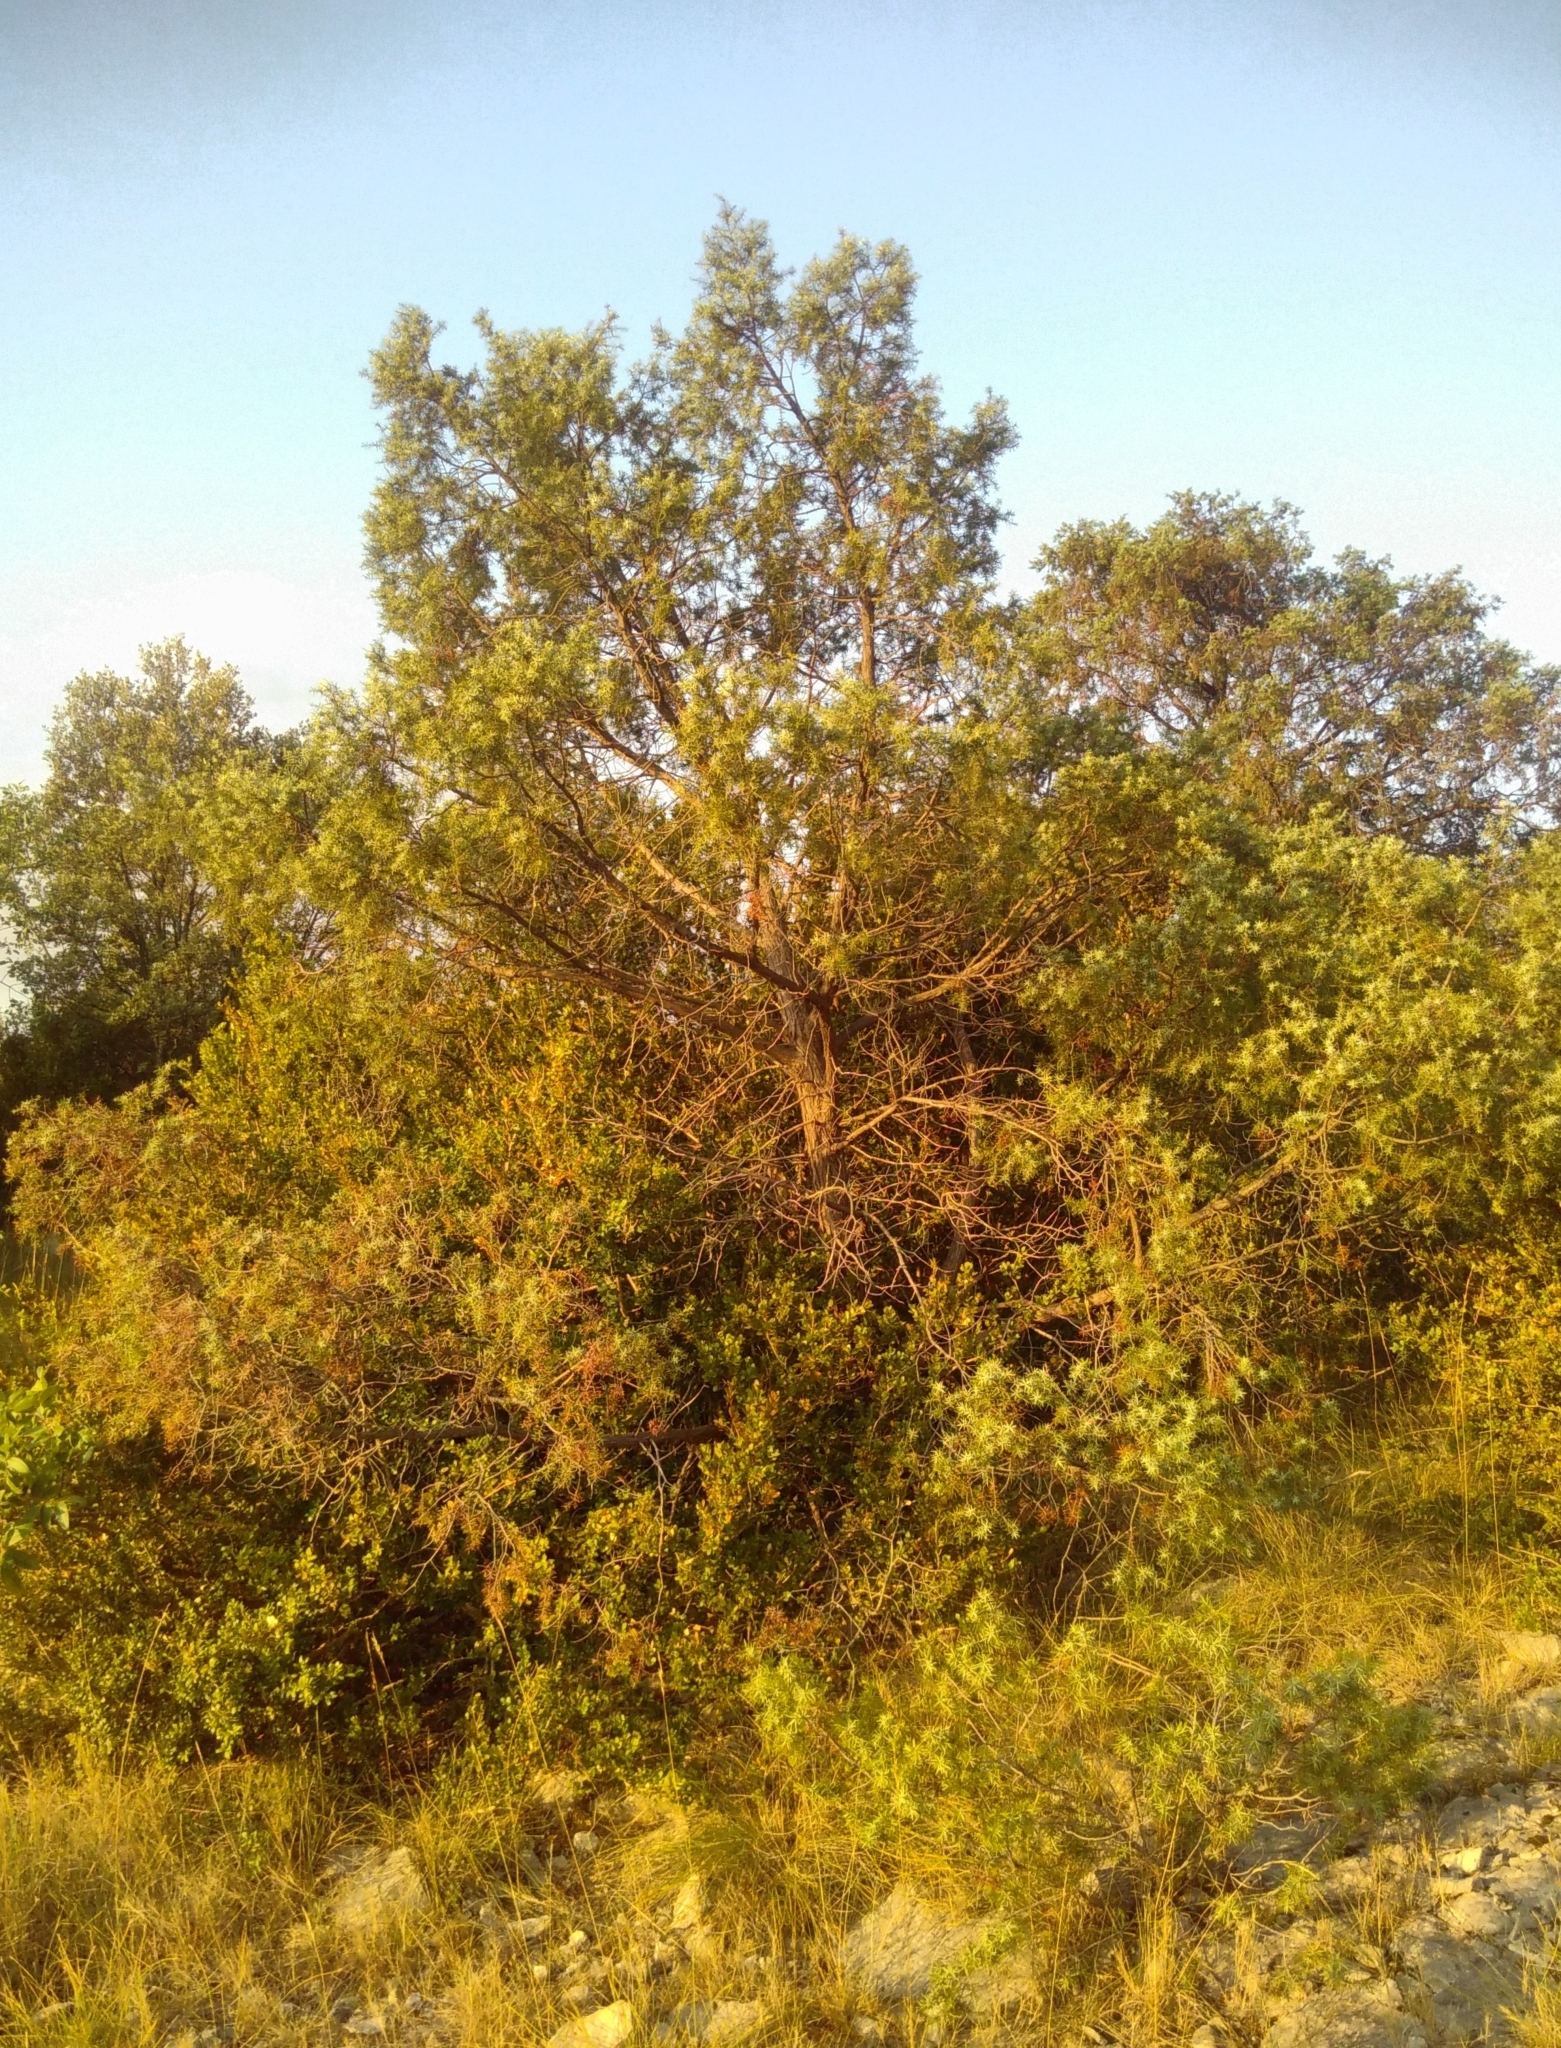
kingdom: Plantae
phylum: Tracheophyta
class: Pinopsida
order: Pinales
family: Cupressaceae
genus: Juniperus
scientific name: Juniperus oxycedrus
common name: Prickly juniper
